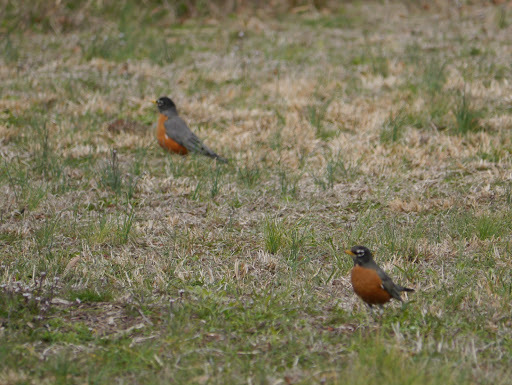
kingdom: Animalia
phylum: Chordata
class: Aves
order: Passeriformes
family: Turdidae
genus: Turdus
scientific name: Turdus migratorius
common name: American robin
